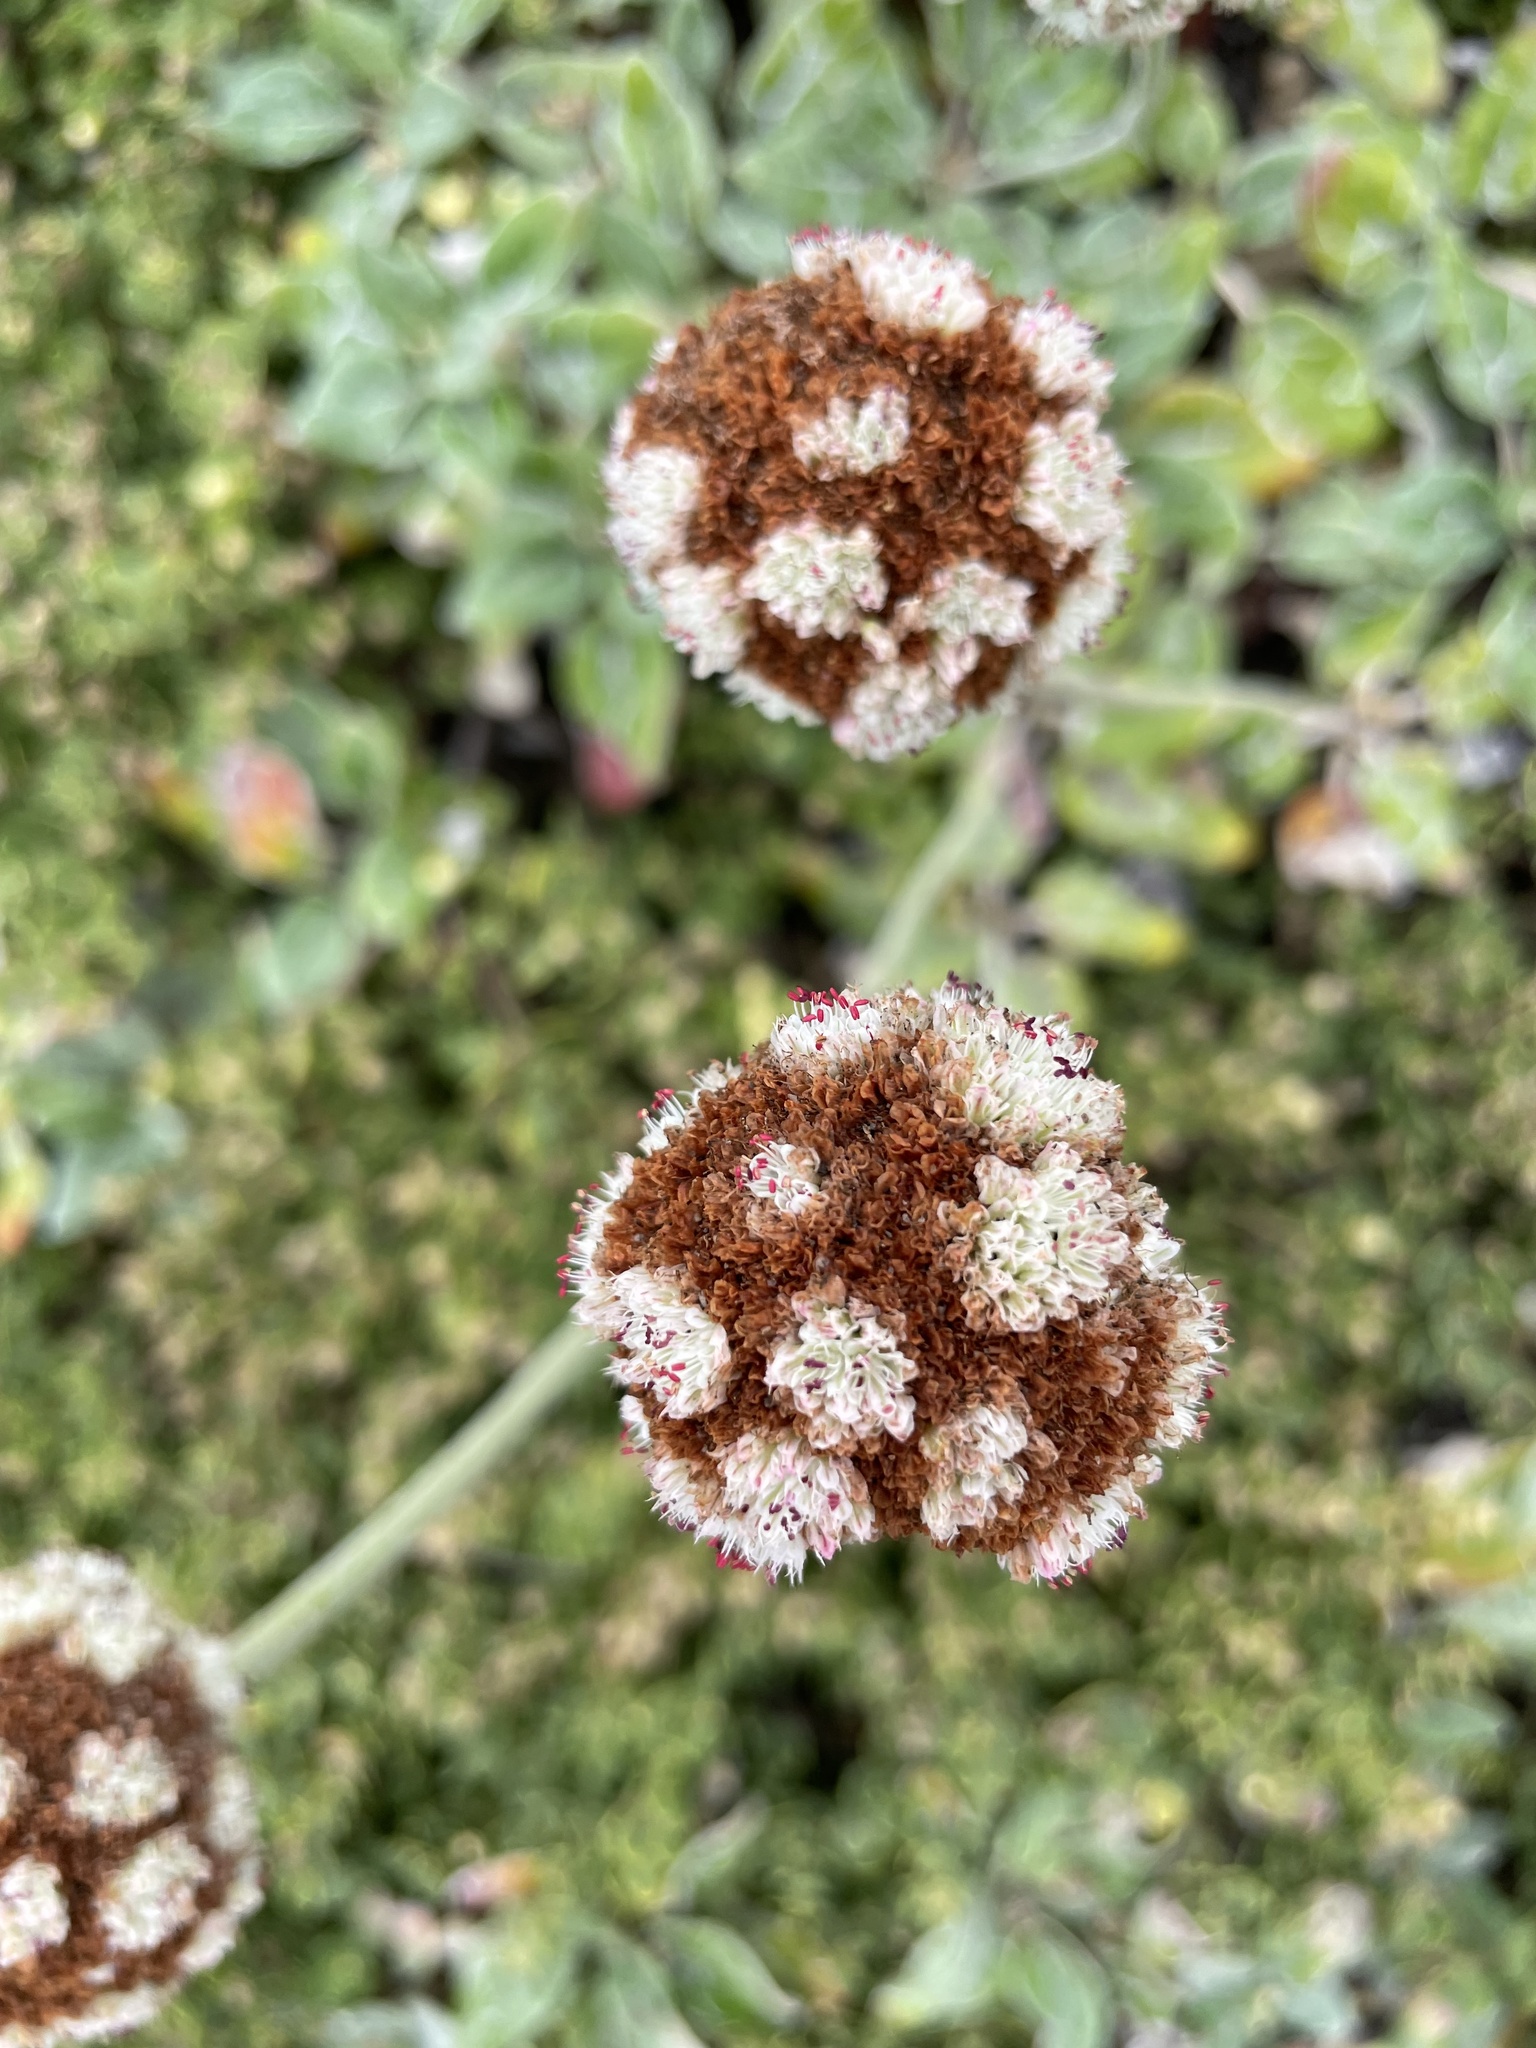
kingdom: Plantae
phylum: Tracheophyta
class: Magnoliopsida
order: Caryophyllales
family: Polygonaceae
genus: Eriogonum
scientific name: Eriogonum latifolium
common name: Seaside wild buckwheat
